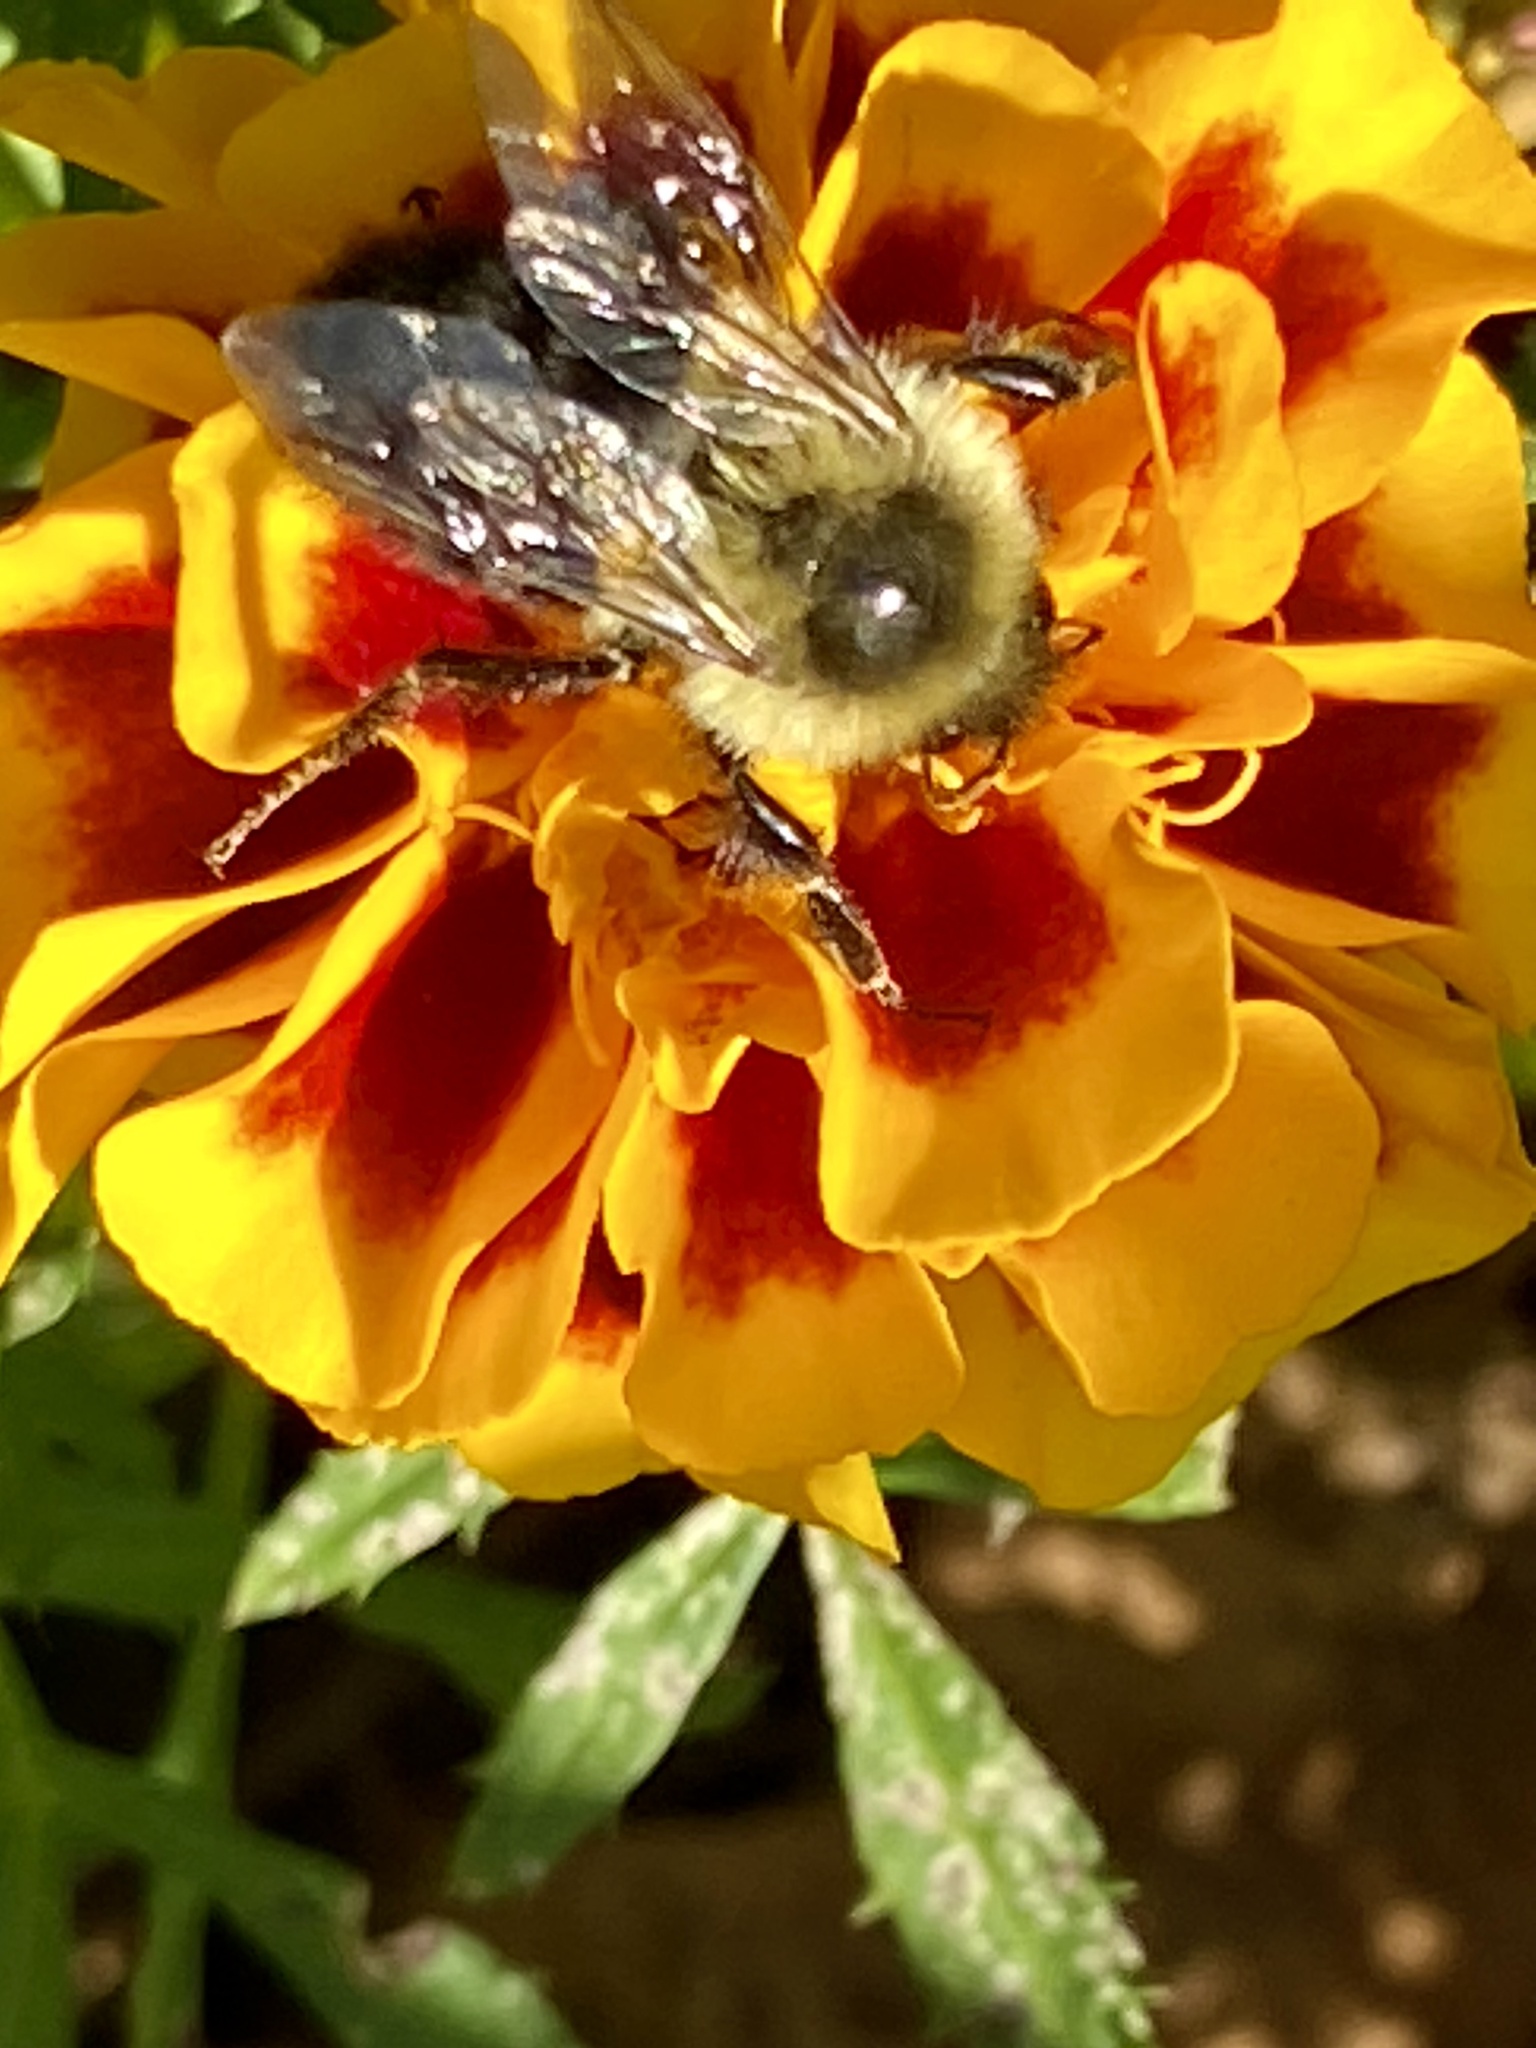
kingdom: Animalia
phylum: Arthropoda
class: Insecta
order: Hymenoptera
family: Apidae
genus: Bombus
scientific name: Bombus impatiens
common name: Common eastern bumble bee
